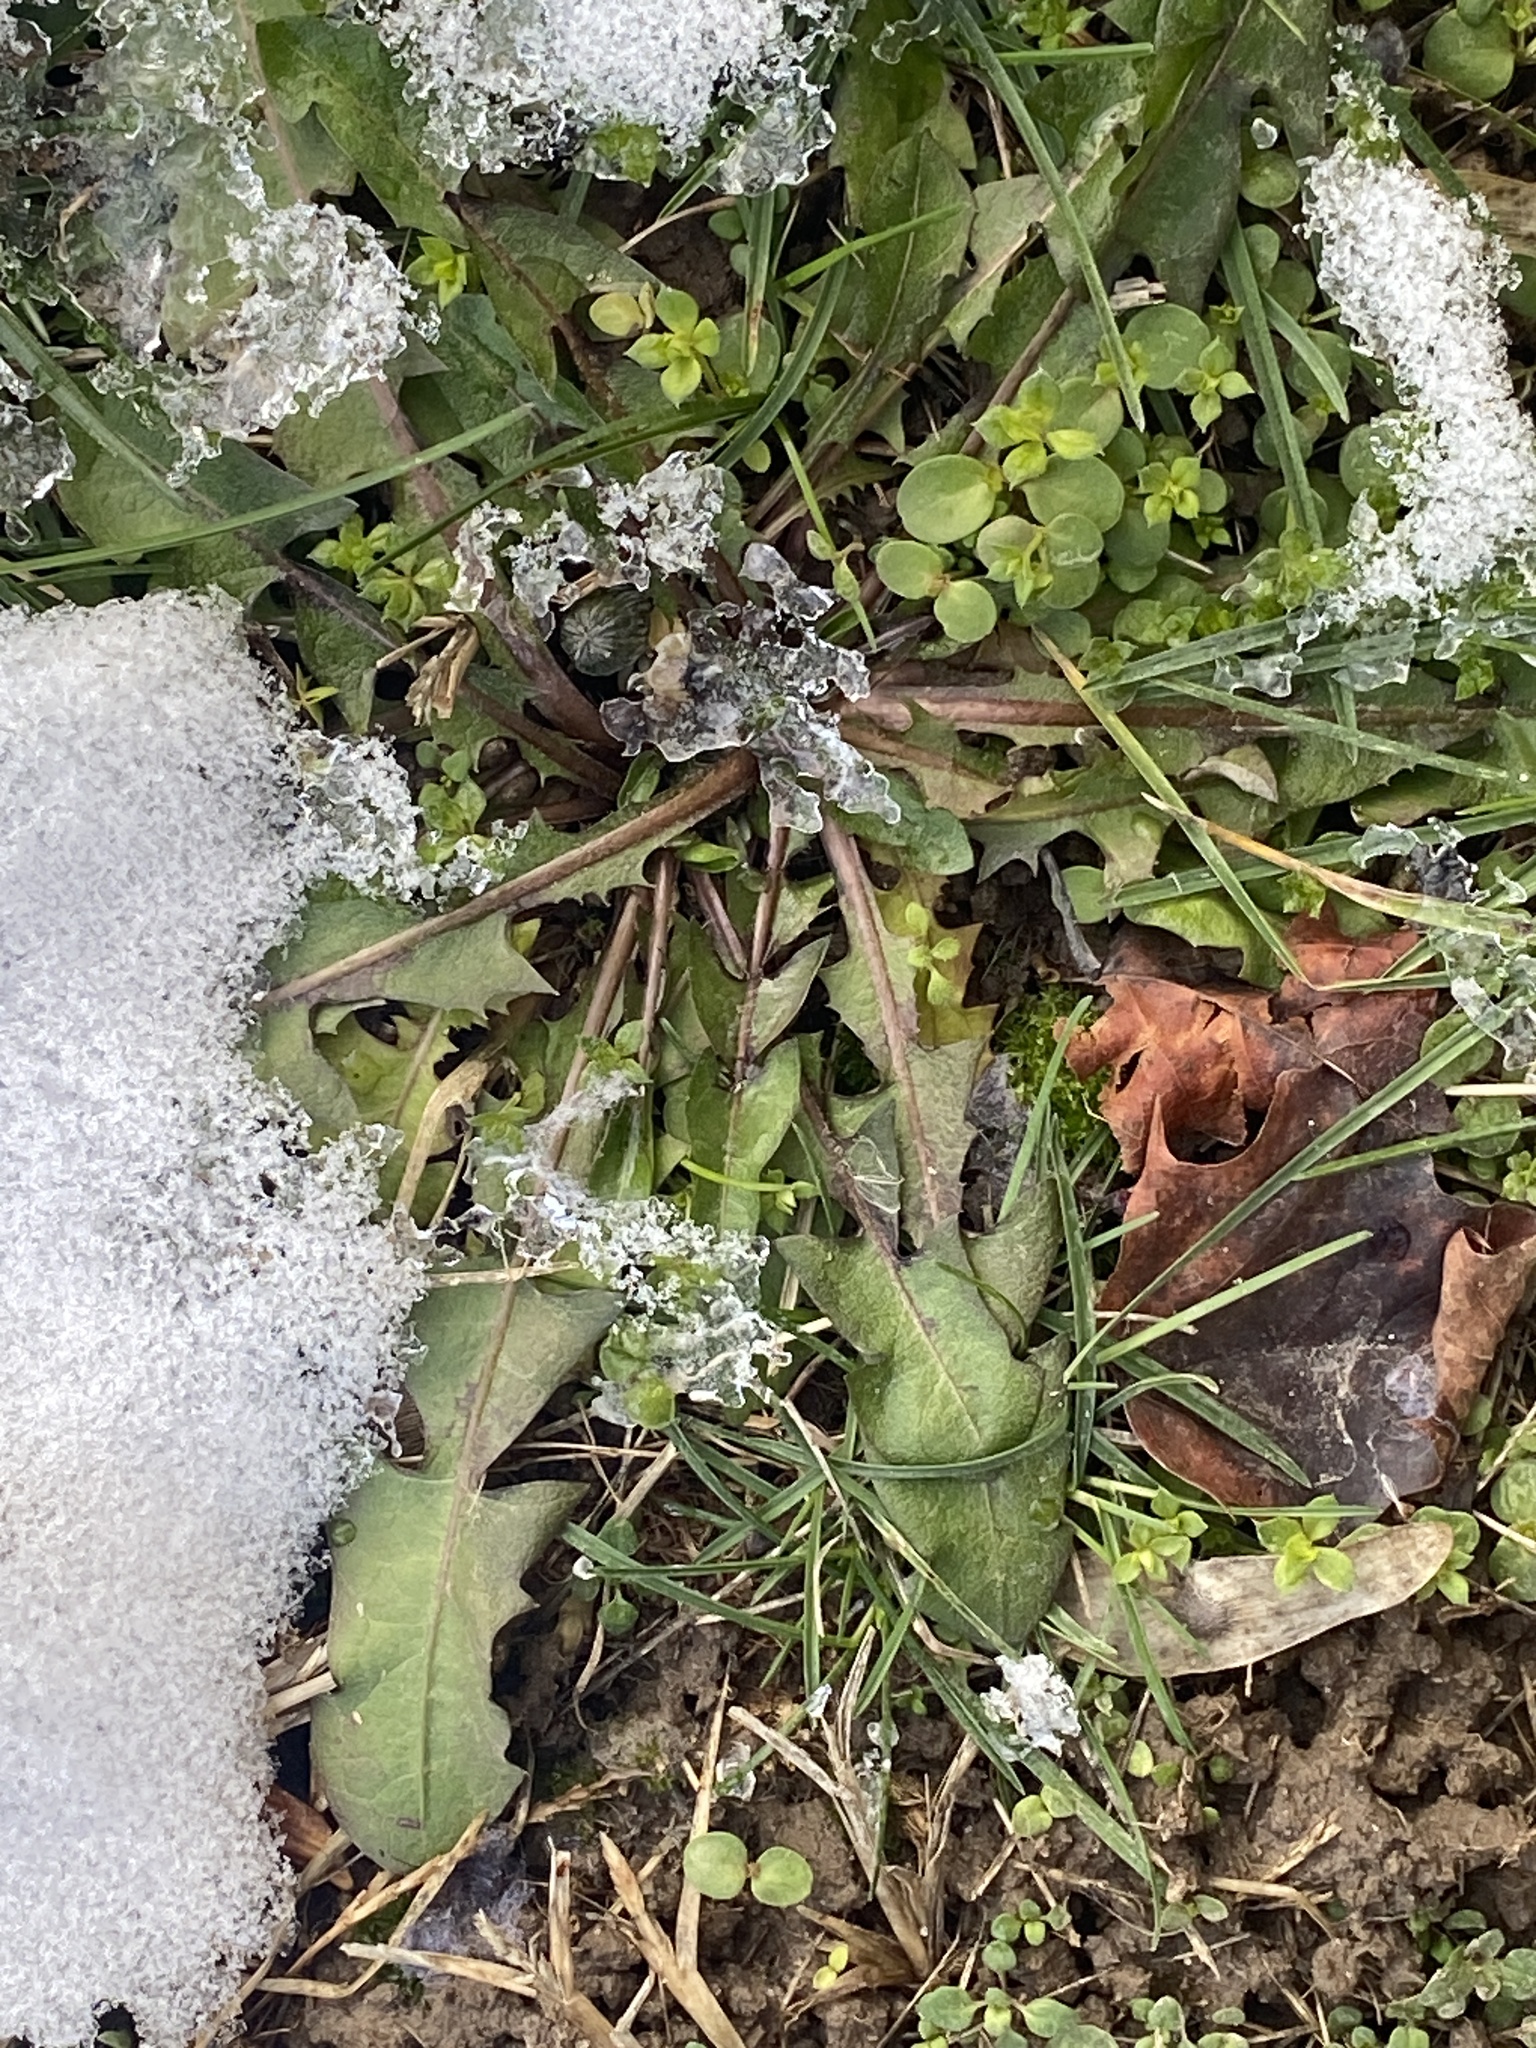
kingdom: Plantae
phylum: Tracheophyta
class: Magnoliopsida
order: Asterales
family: Asteraceae
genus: Taraxacum
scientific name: Taraxacum
